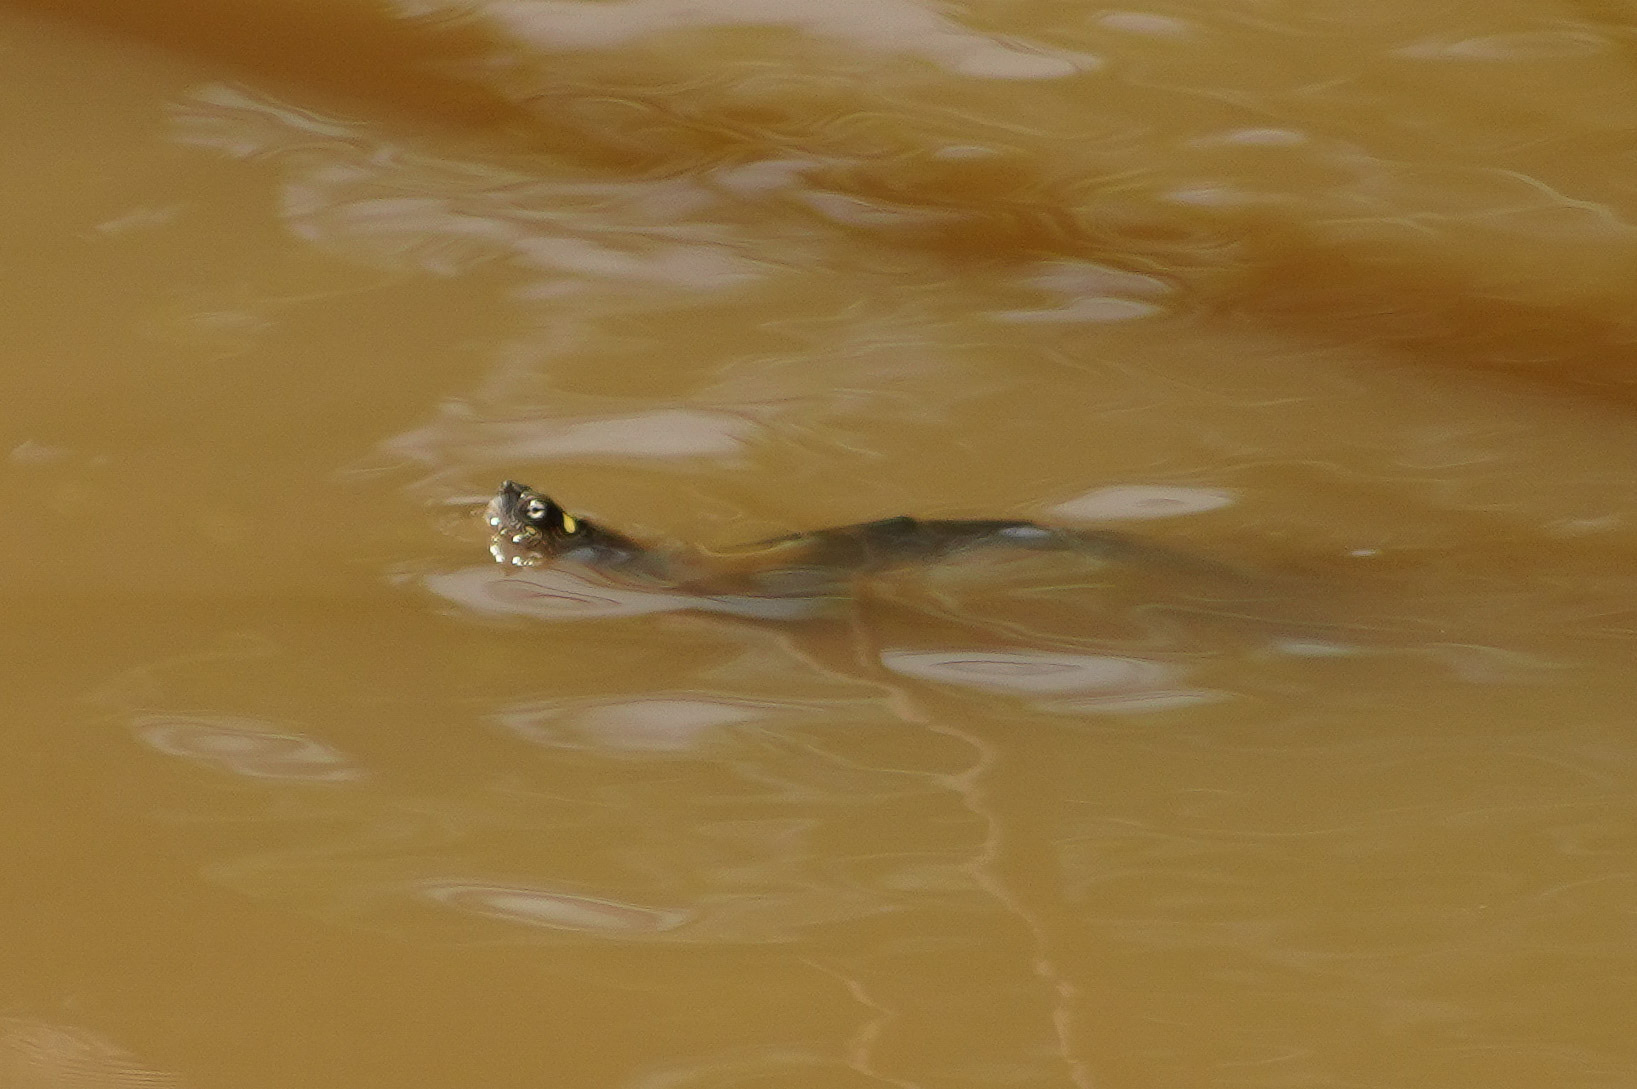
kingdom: Animalia
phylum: Chordata
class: Testudines
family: Emydidae
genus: Graptemys
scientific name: Graptemys ouachitensis
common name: Ouachita map turtle
